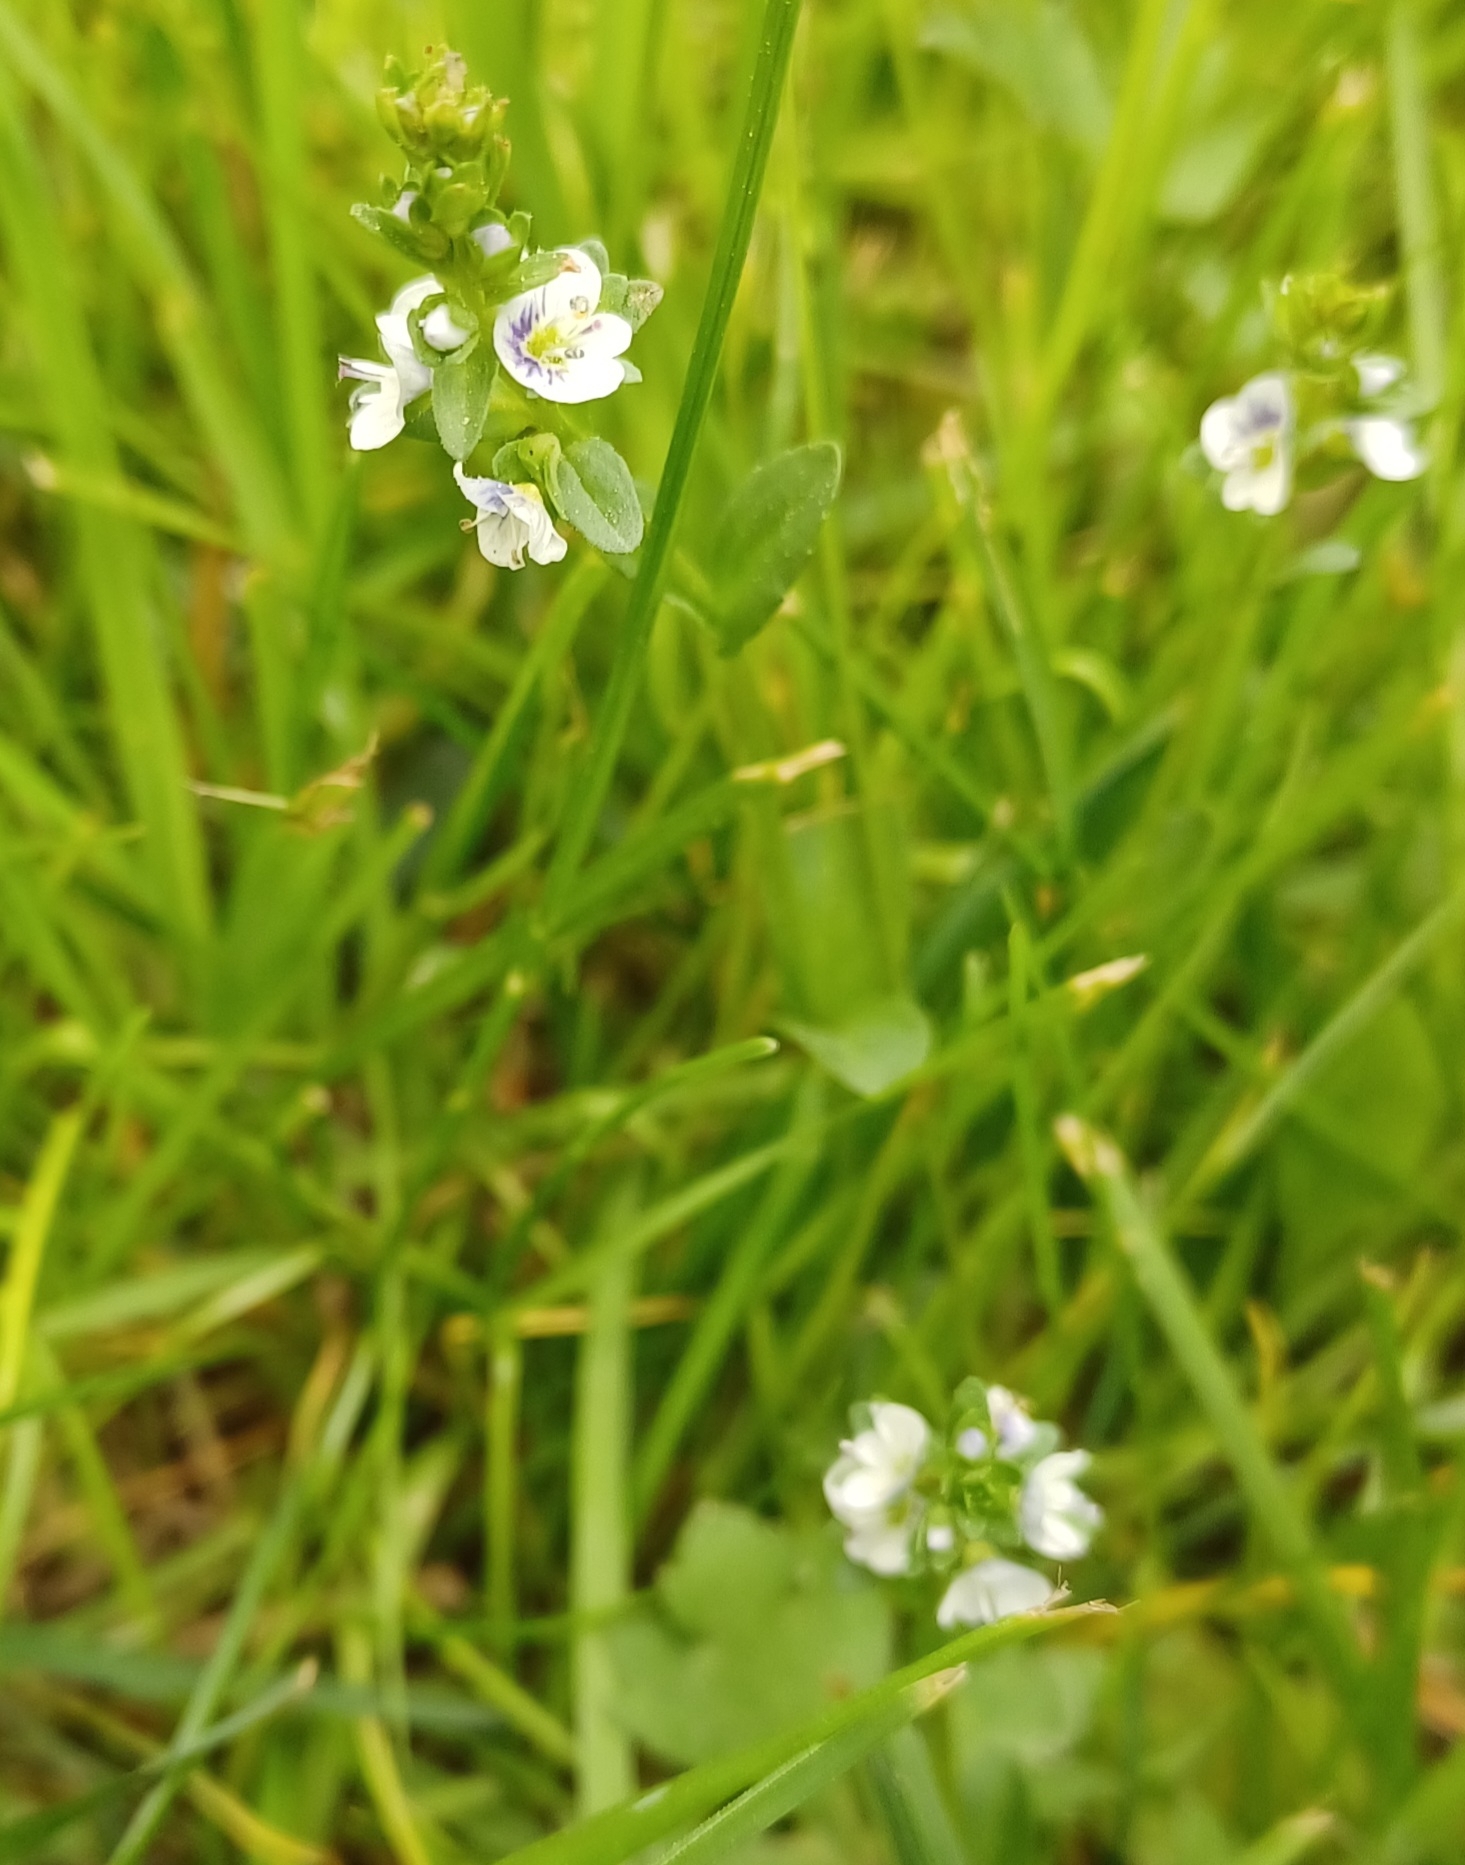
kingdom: Plantae
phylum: Tracheophyta
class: Magnoliopsida
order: Lamiales
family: Plantaginaceae
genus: Veronica
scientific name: Veronica serpyllifolia
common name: Thyme-leaved speedwell
